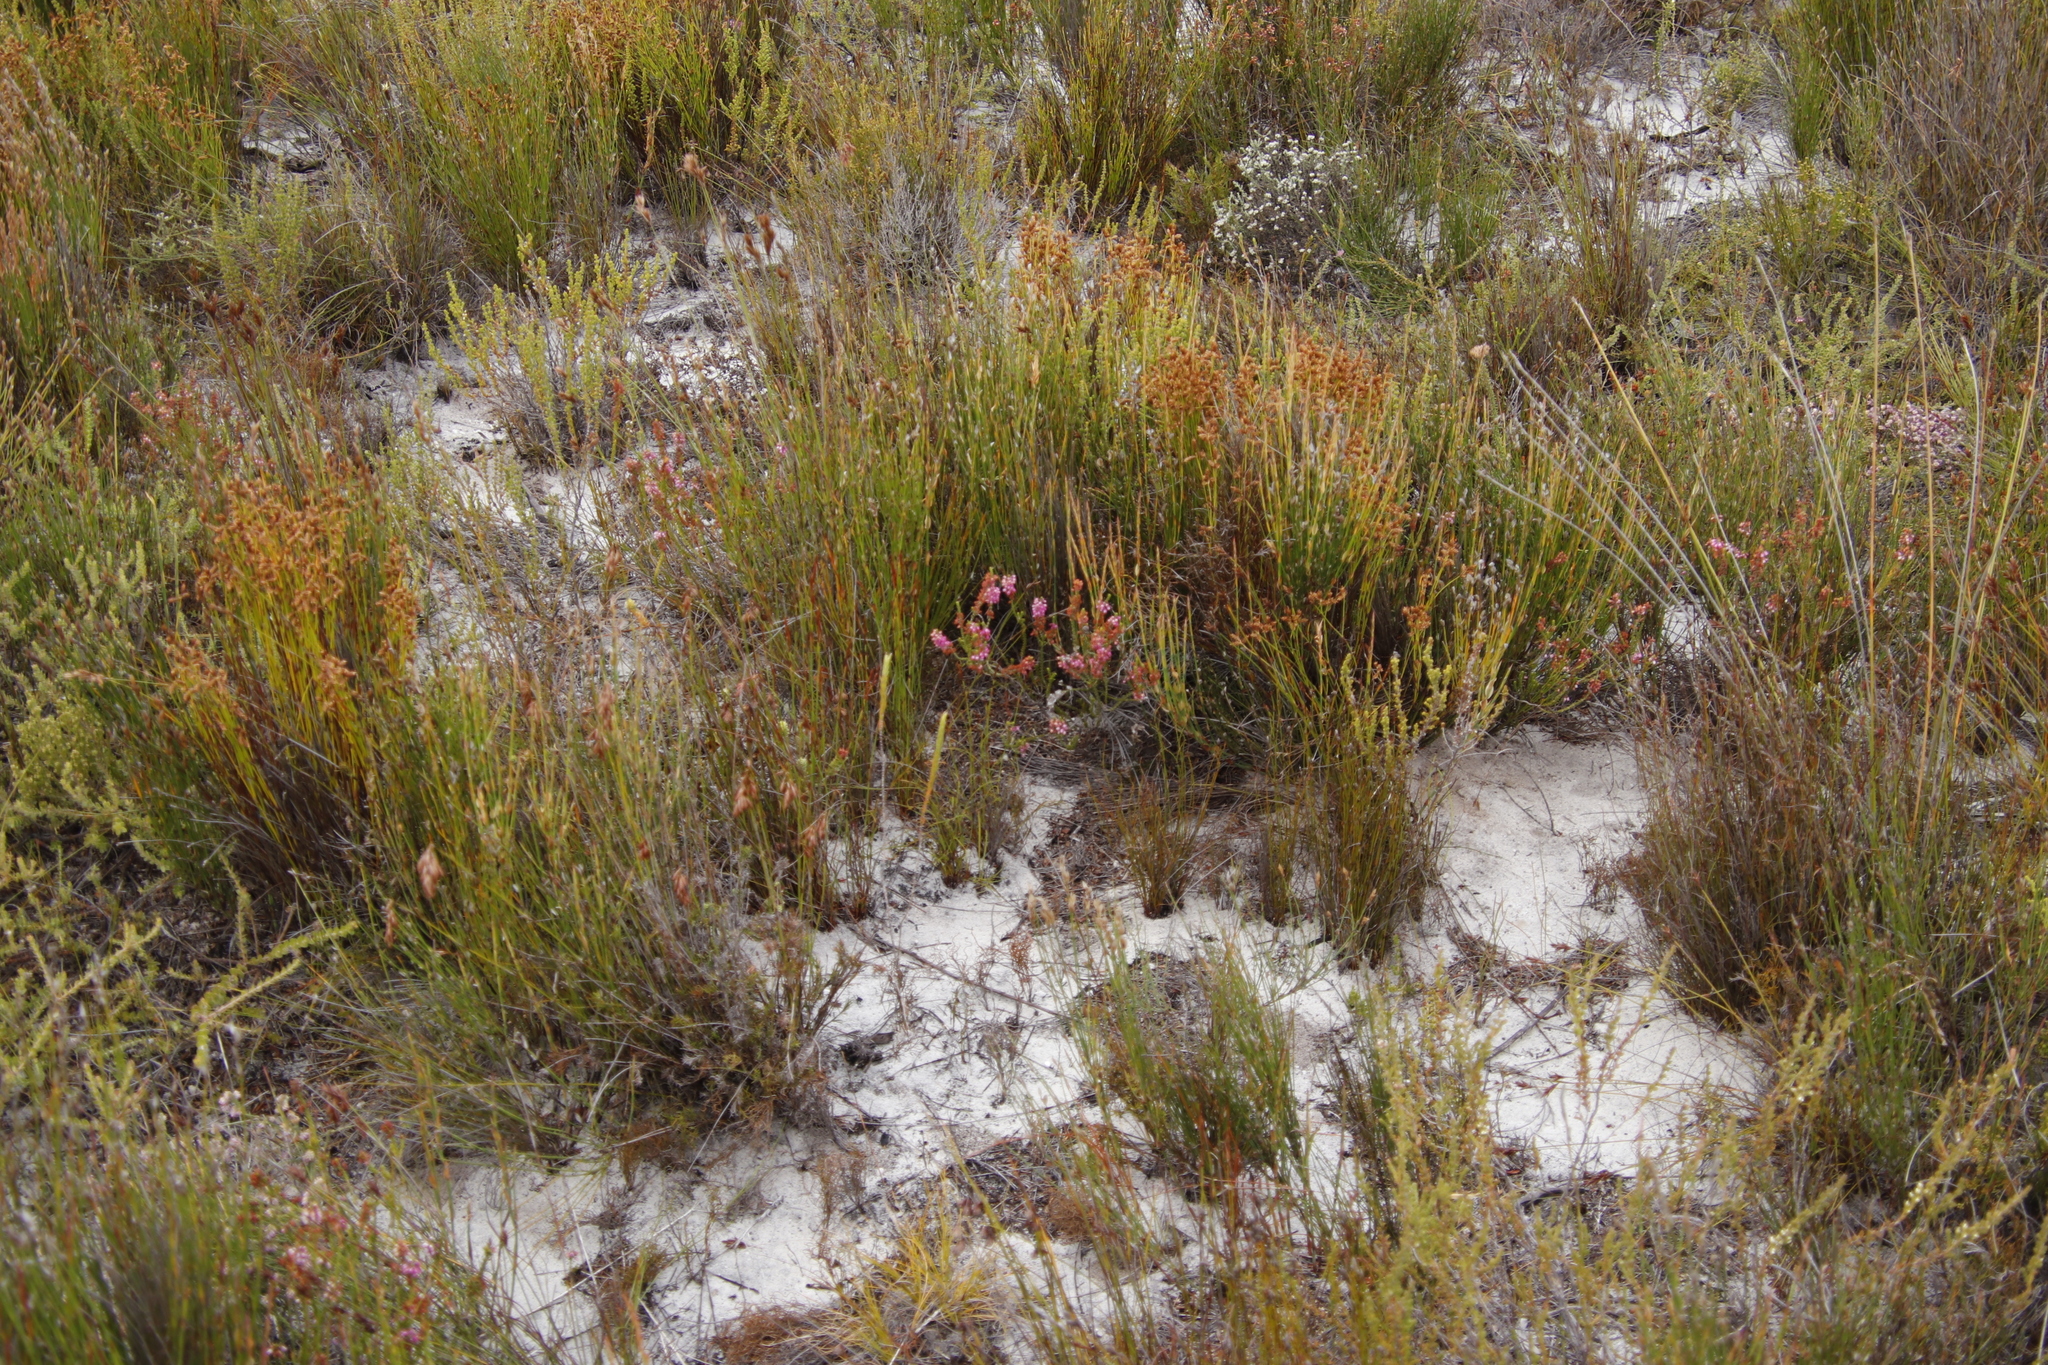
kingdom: Plantae
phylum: Tracheophyta
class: Magnoliopsida
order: Ericales
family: Ericaceae
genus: Erica
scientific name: Erica pulchella
